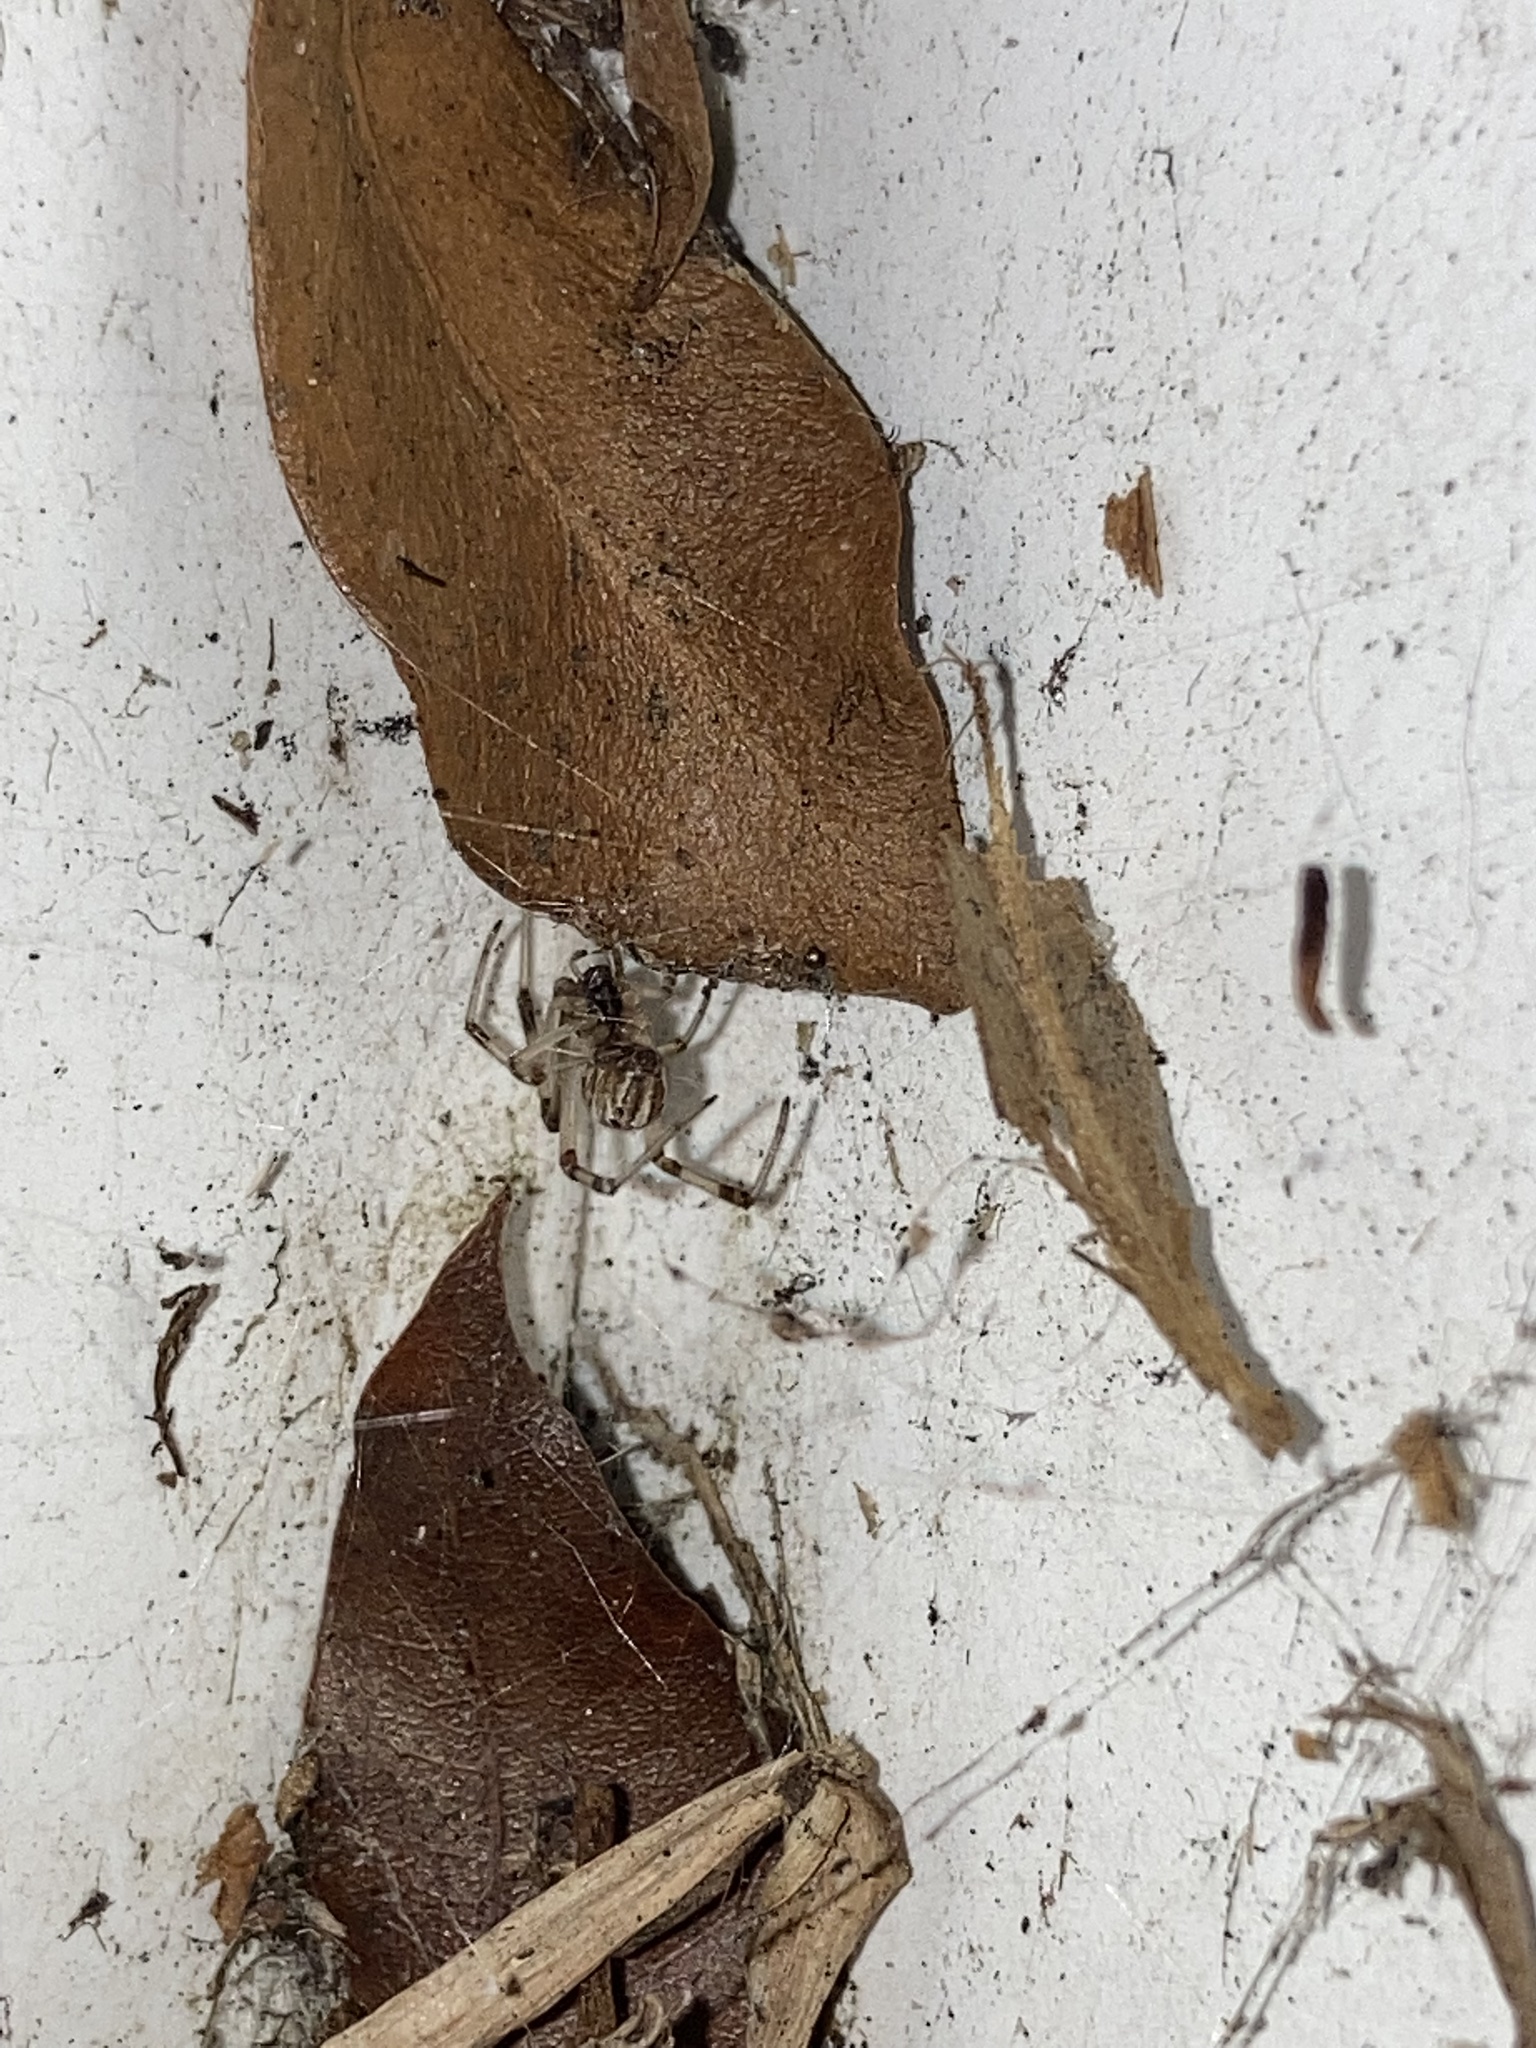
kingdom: Animalia
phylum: Arthropoda
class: Arachnida
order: Araneae
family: Theridiidae
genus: Latrodectus
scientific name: Latrodectus geometricus
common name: Brown widow spider
